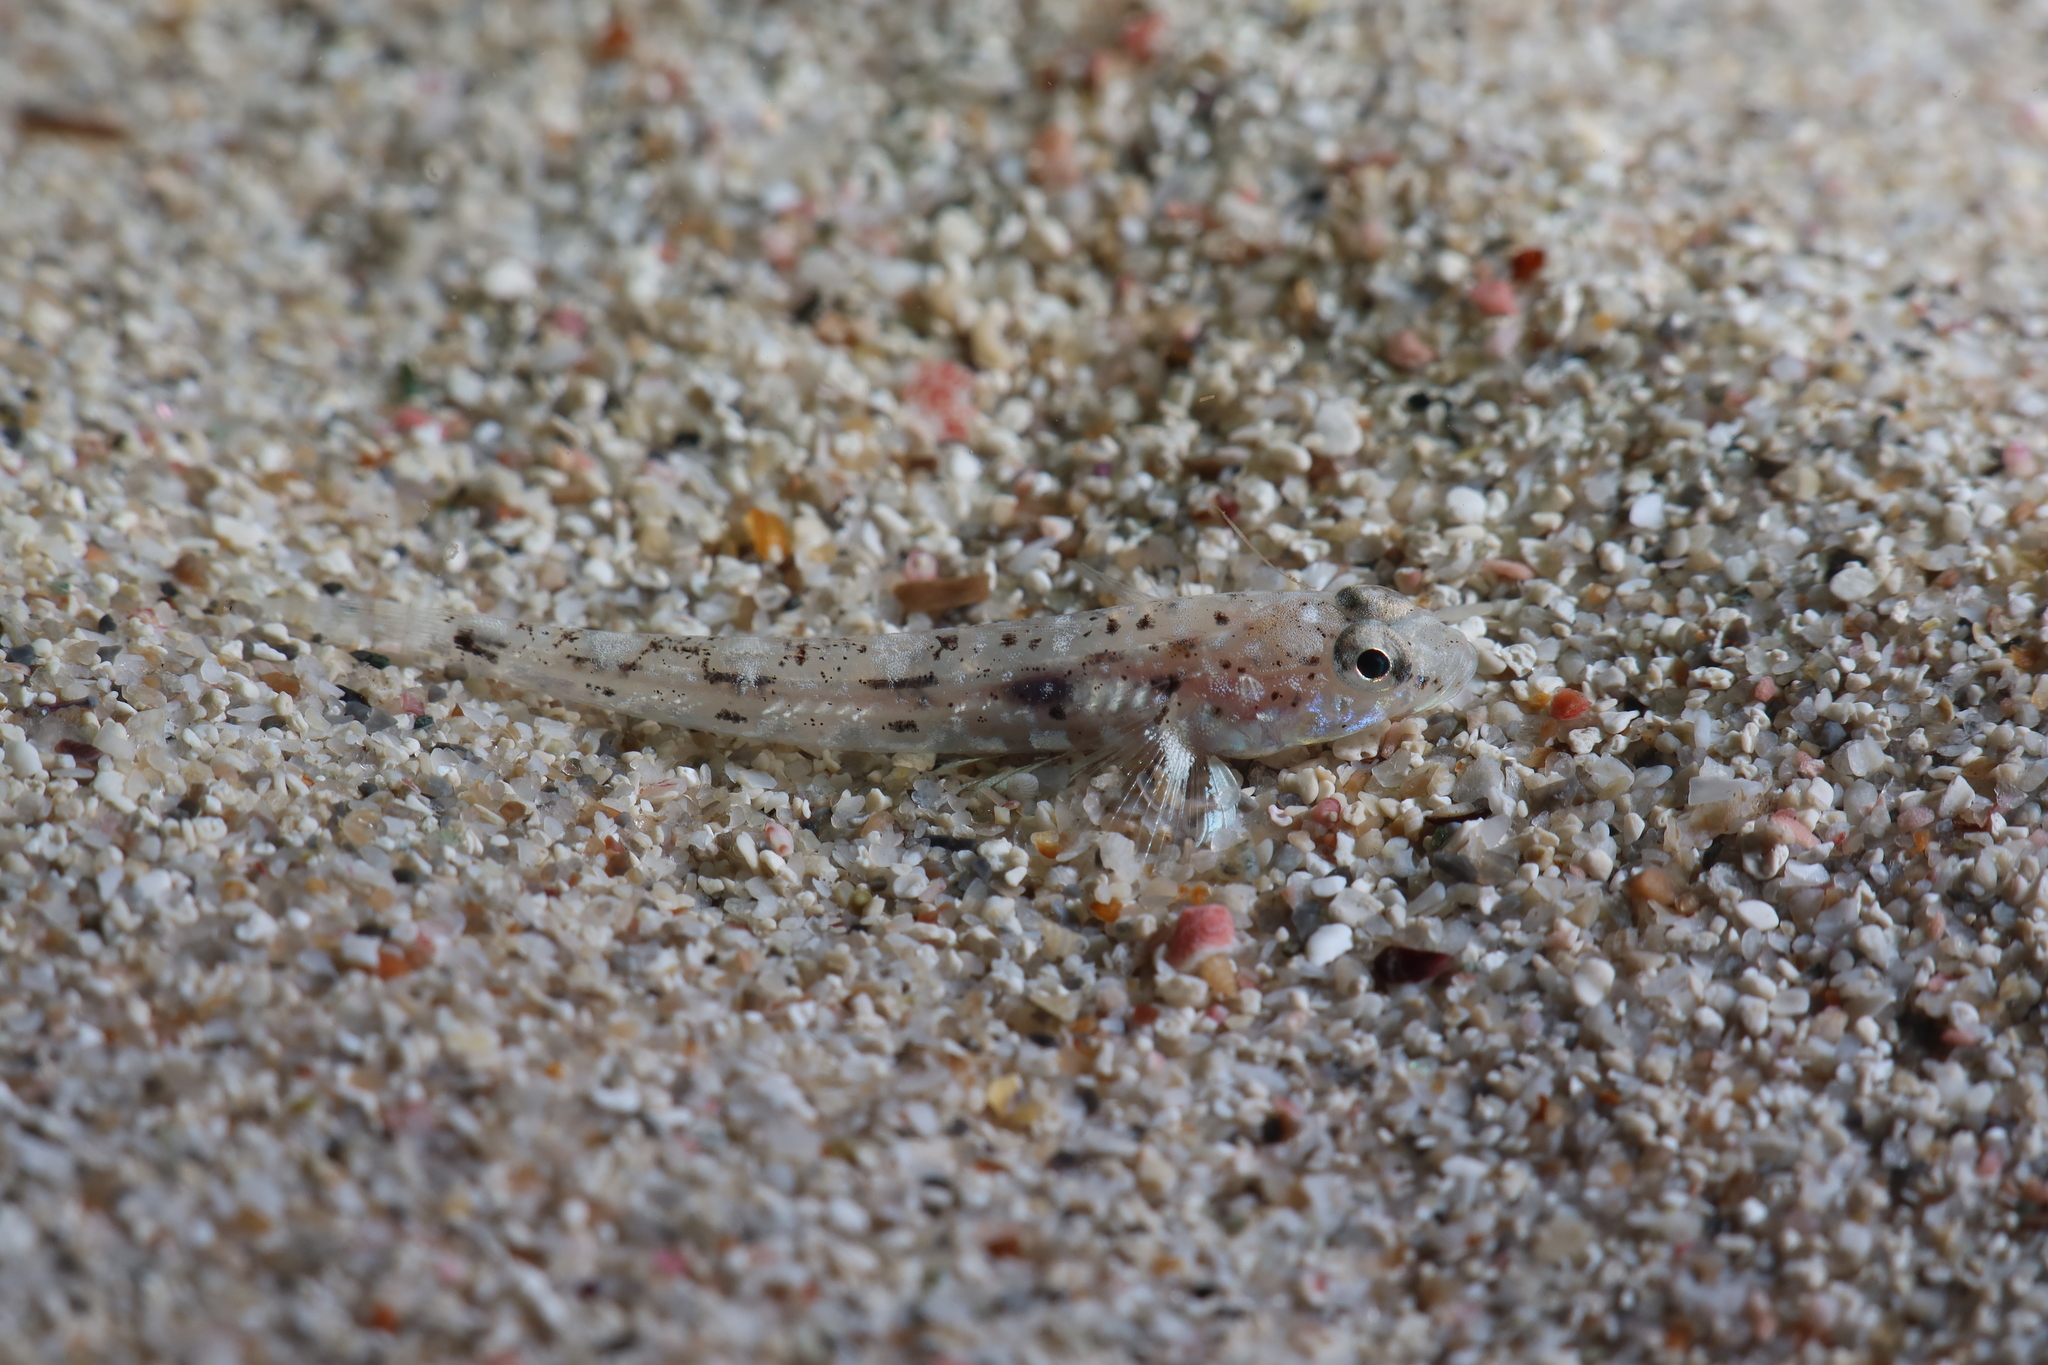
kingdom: Animalia
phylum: Chordata
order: Perciformes
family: Gobiidae
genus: Pomatoschistus
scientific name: Pomatoschistus marmoratus
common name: Marbled goby
